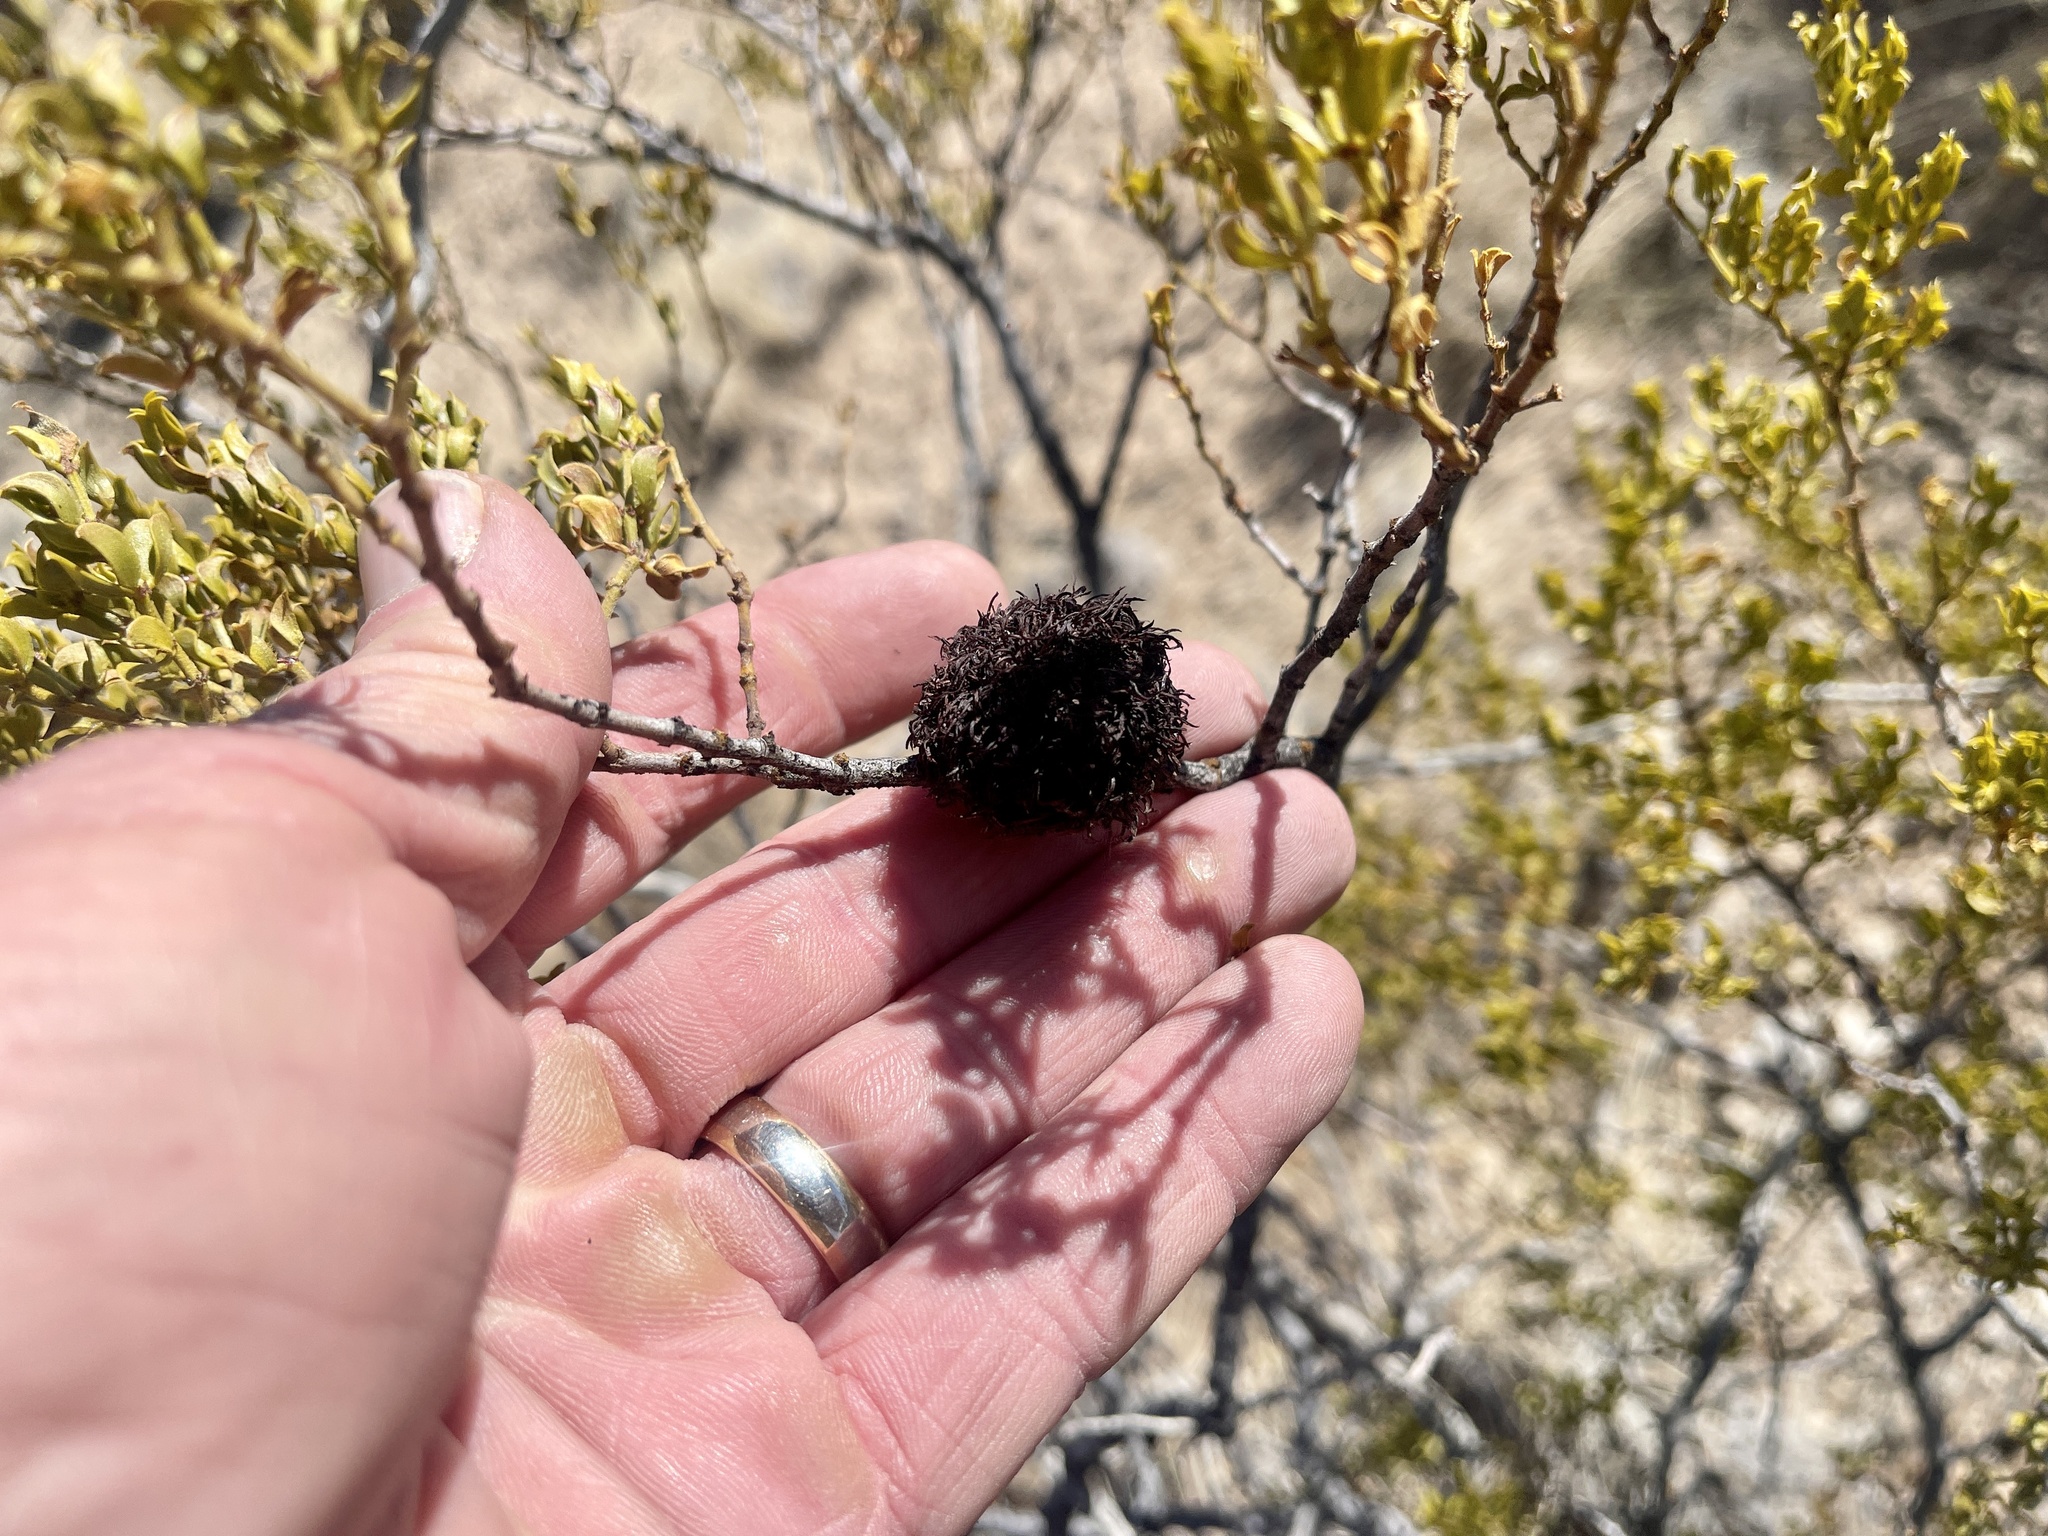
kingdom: Animalia
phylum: Arthropoda
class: Insecta
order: Diptera
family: Cecidomyiidae
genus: Asphondylia
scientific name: Asphondylia auripila
